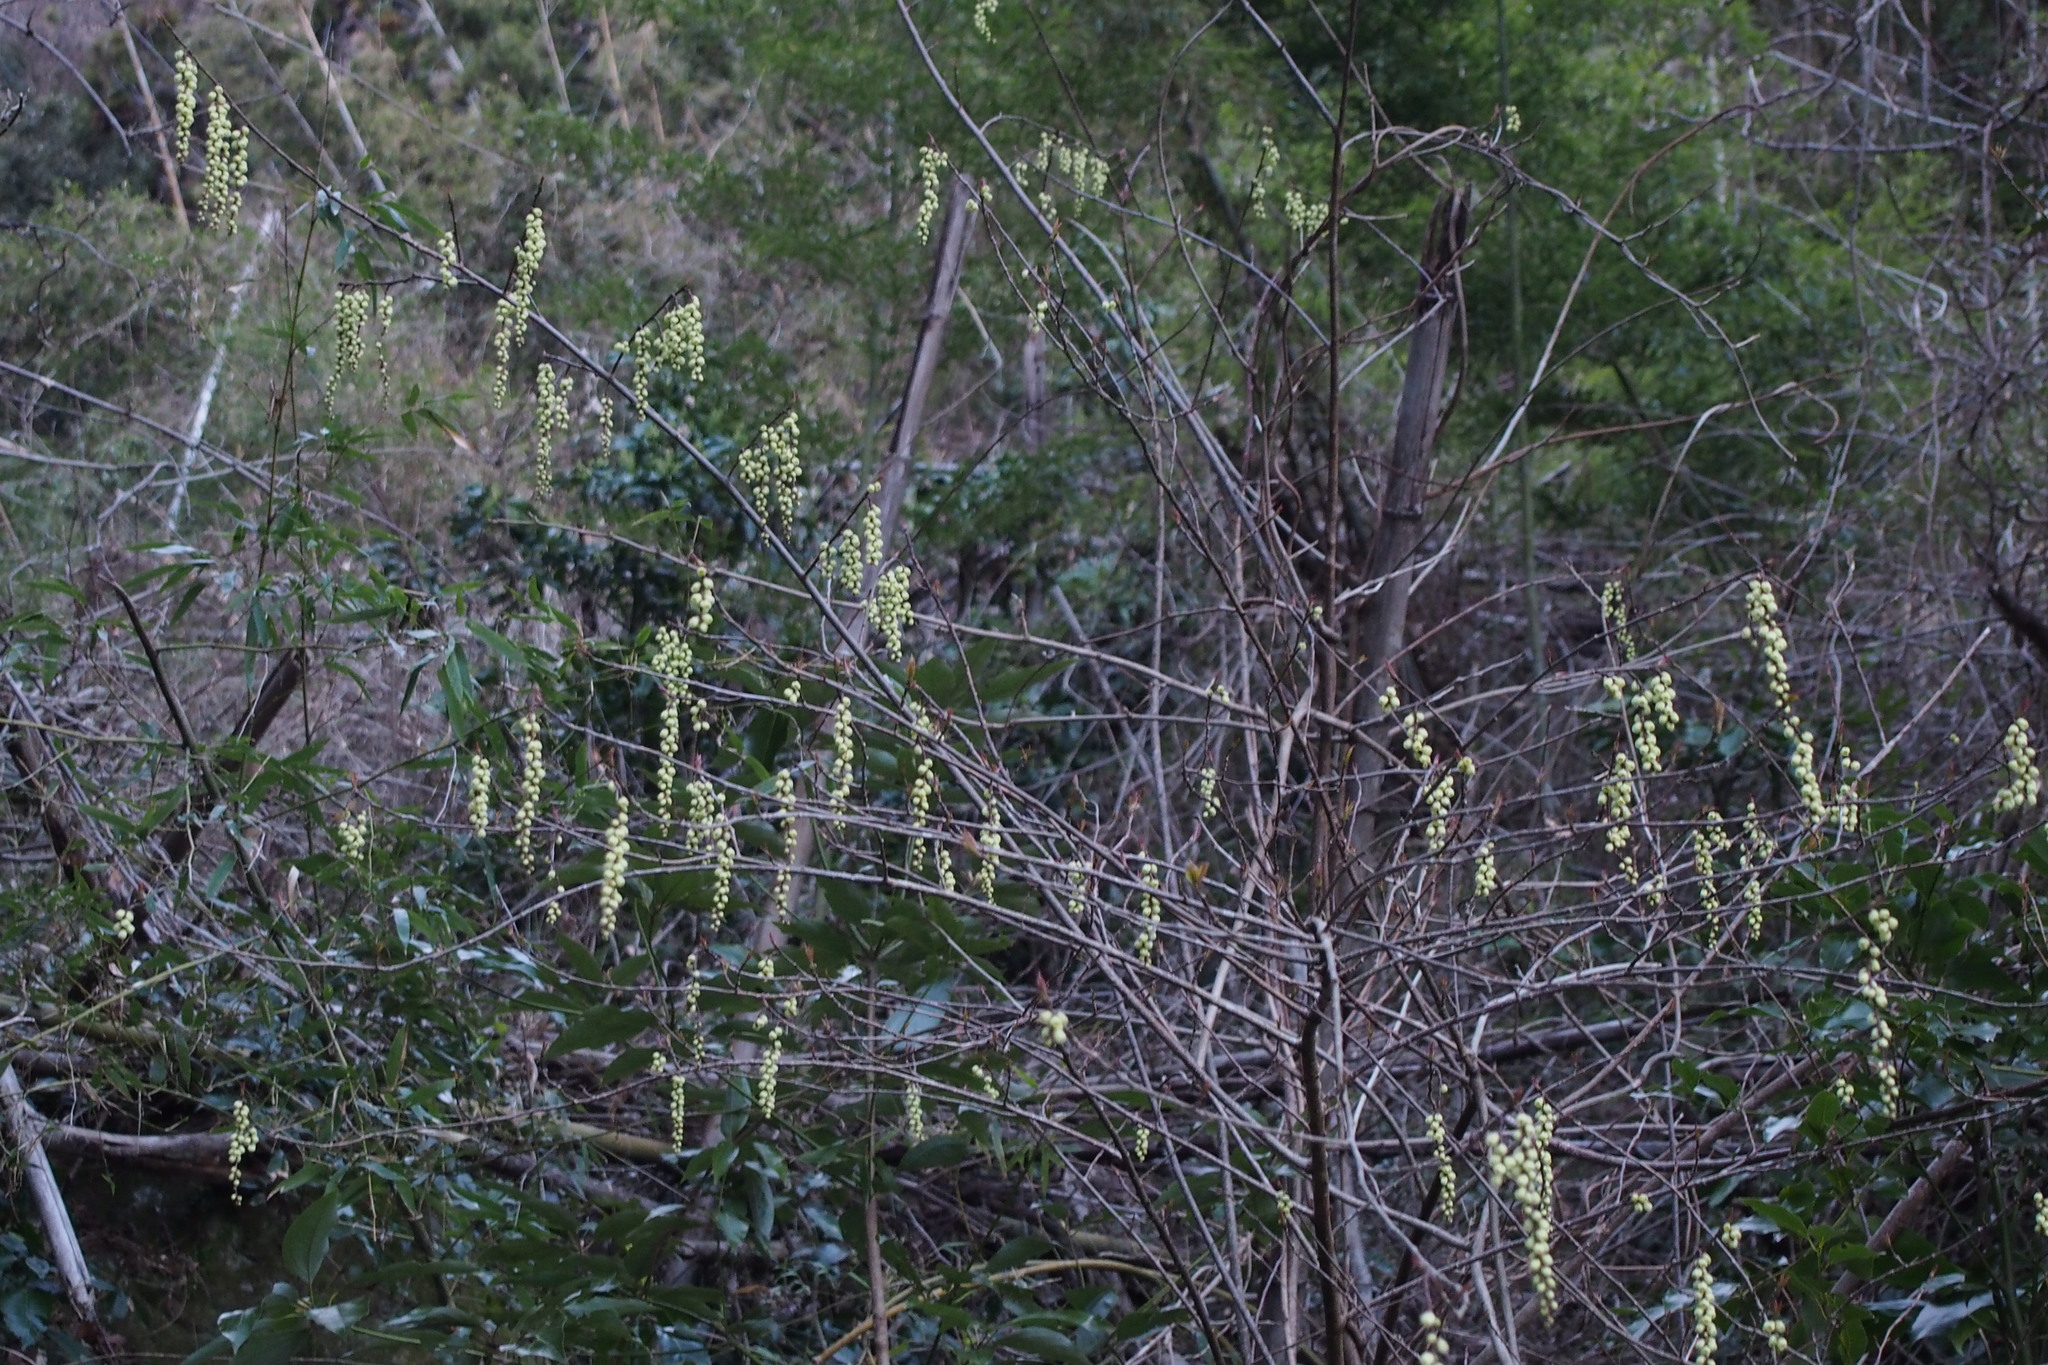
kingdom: Plantae
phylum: Tracheophyta
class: Magnoliopsida
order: Crossosomatales
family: Stachyuraceae
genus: Stachyurus
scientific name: Stachyurus praecox
